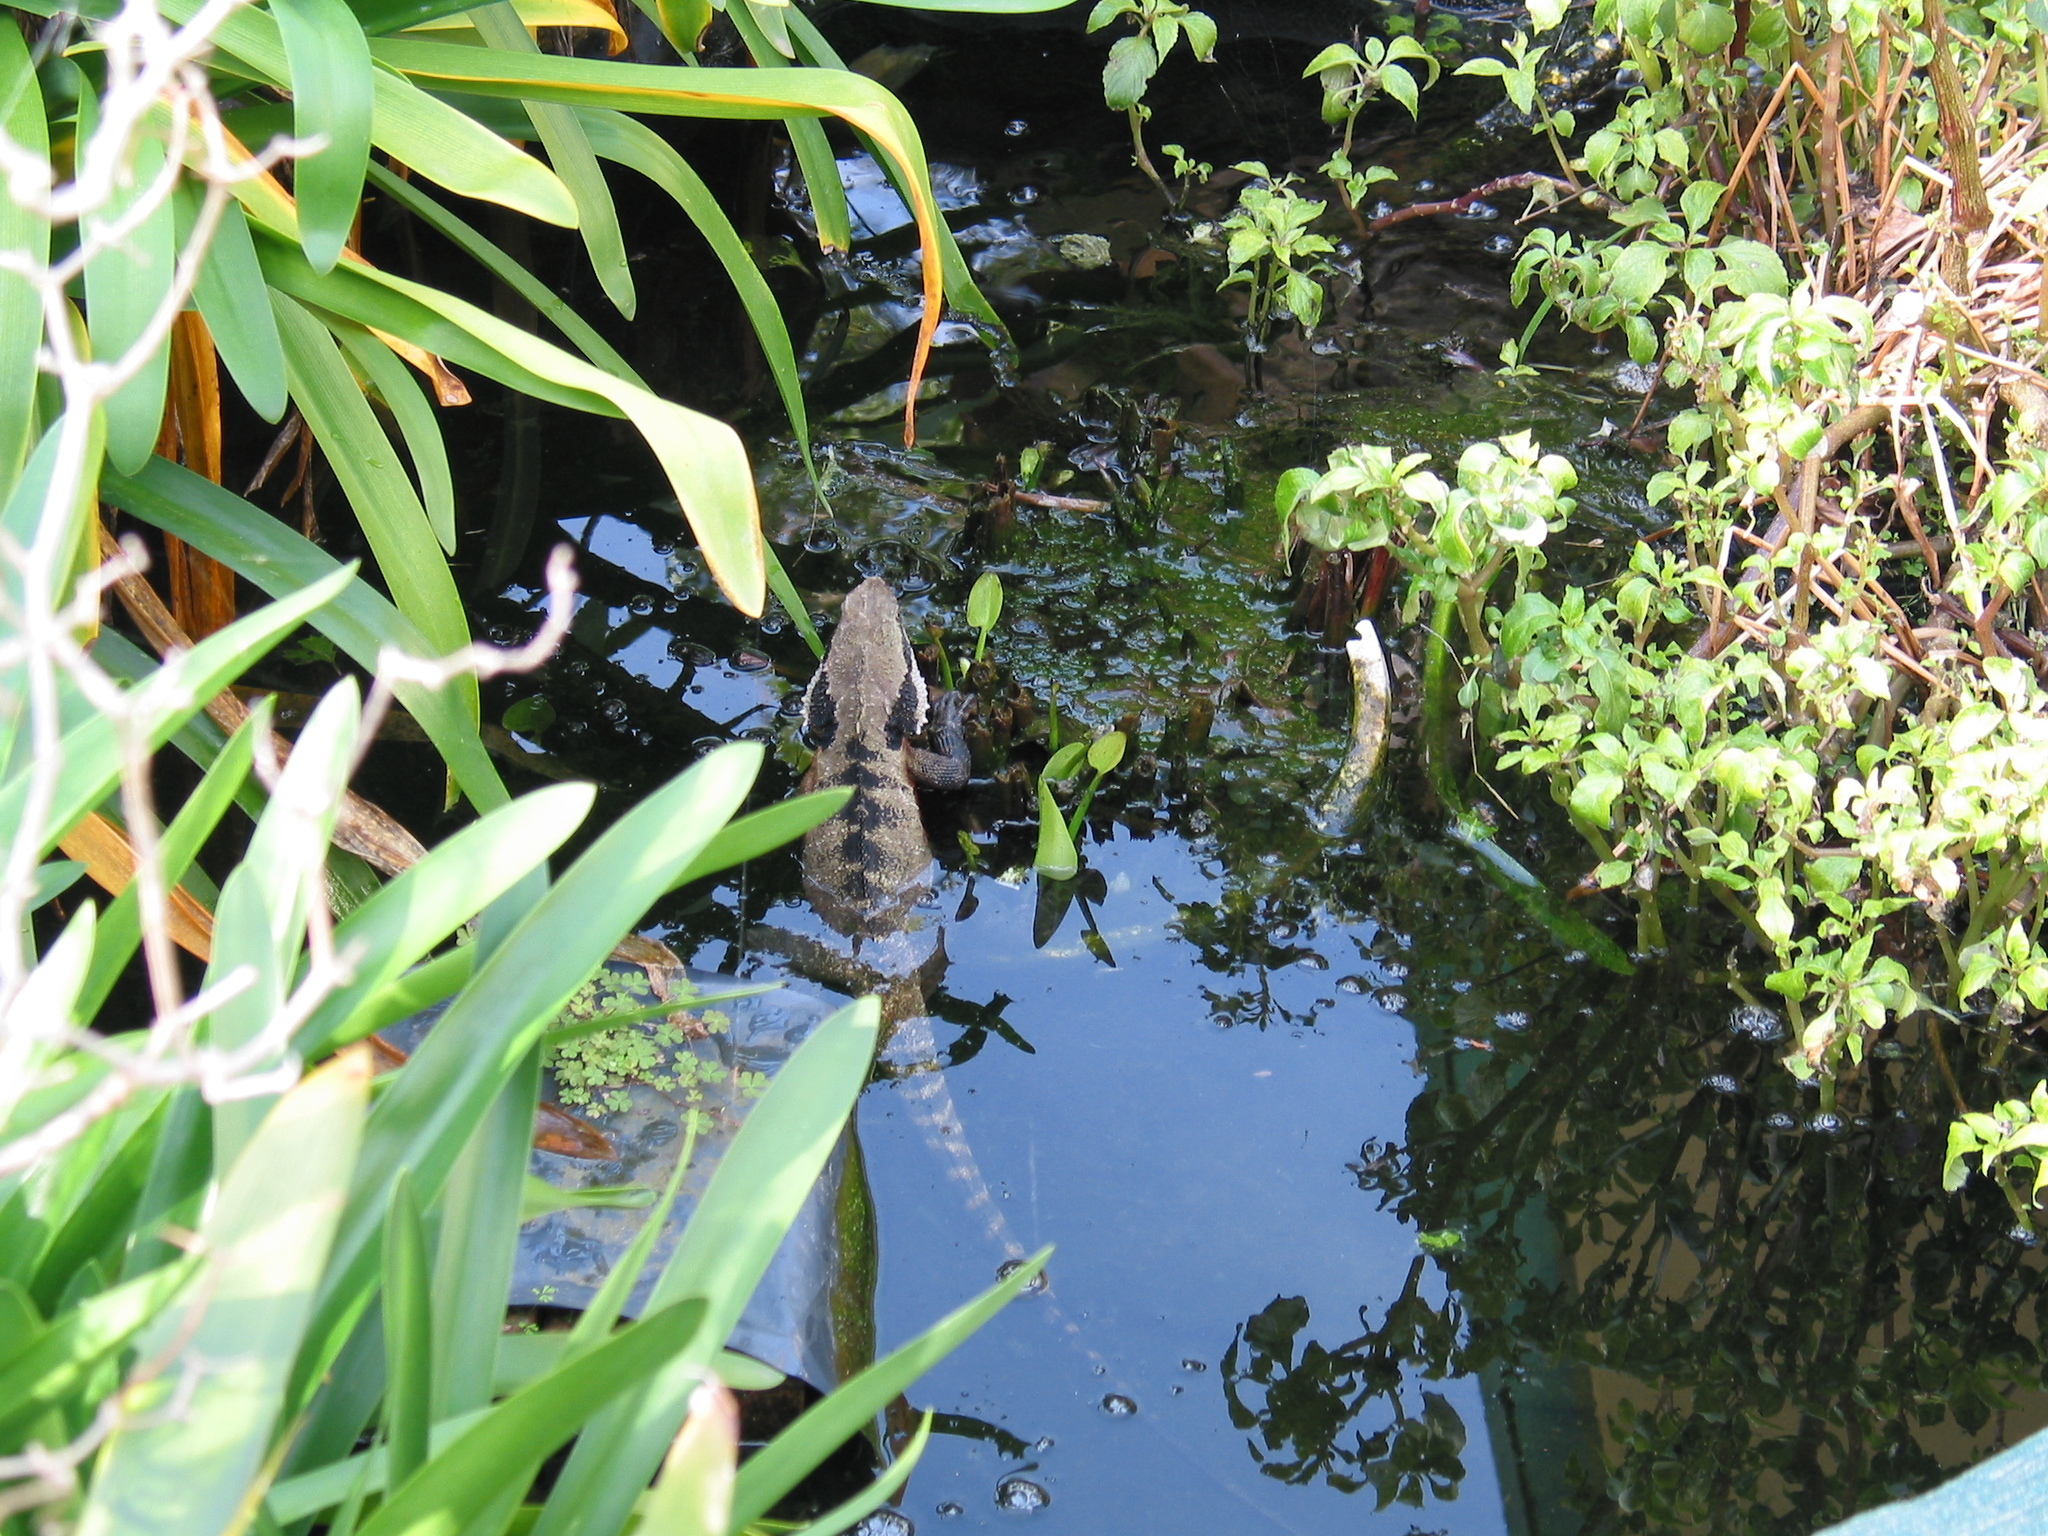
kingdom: Animalia
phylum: Chordata
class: Squamata
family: Agamidae
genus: Intellagama
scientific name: Intellagama lesueurii
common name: Eastern water dragon
